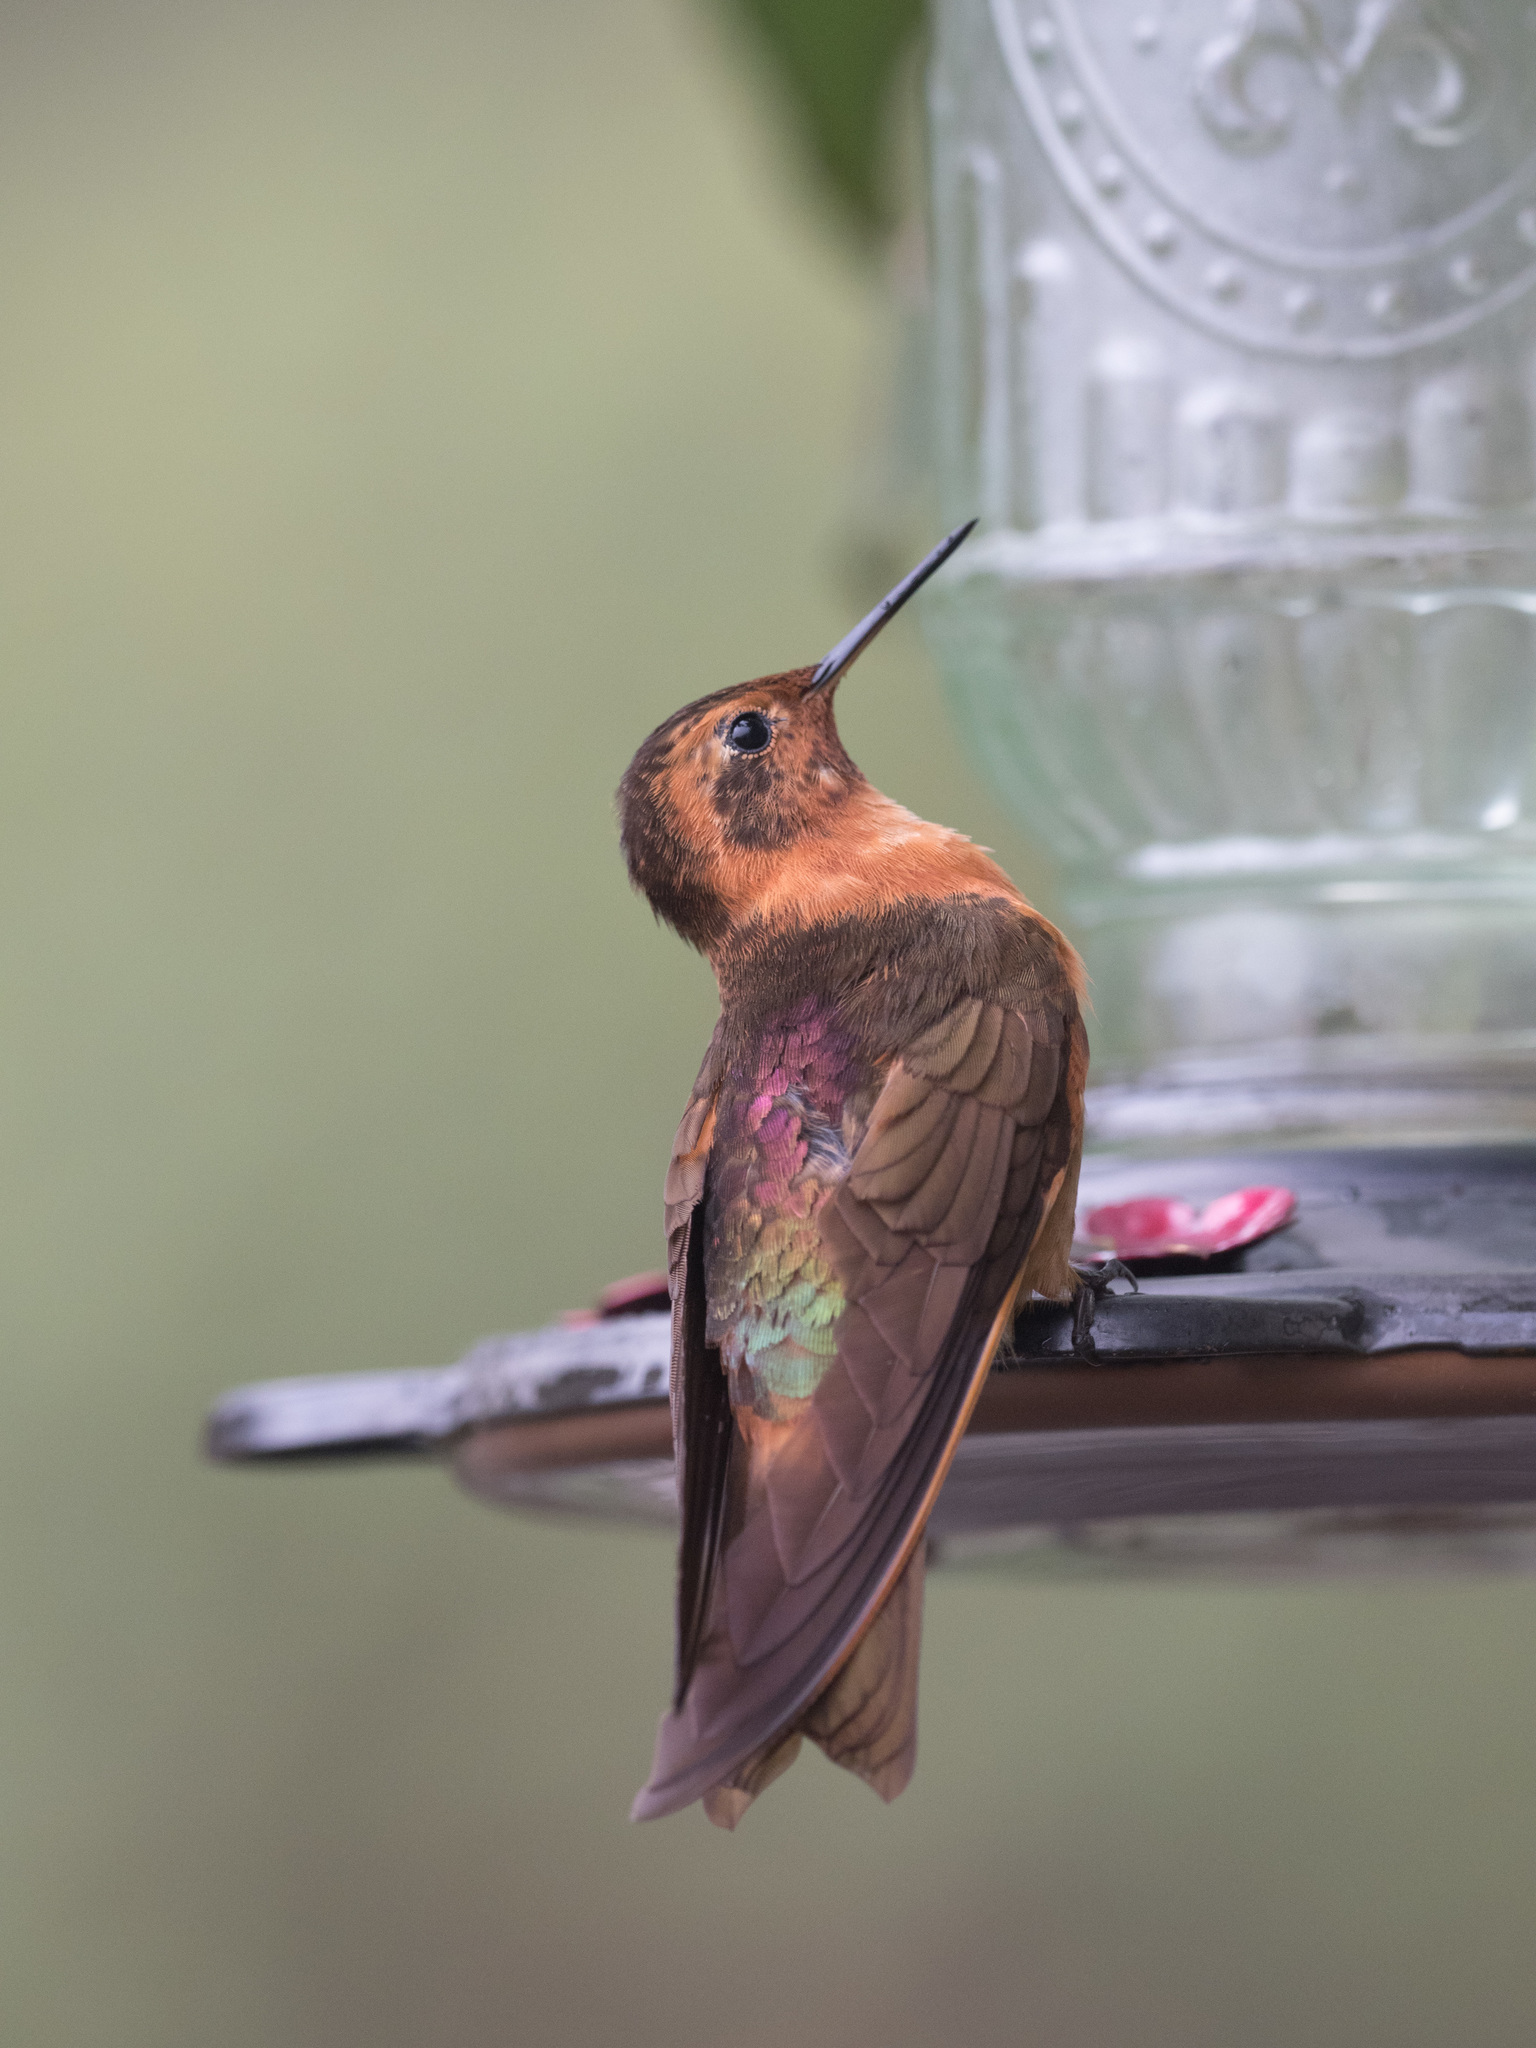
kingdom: Animalia
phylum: Chordata
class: Aves
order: Apodiformes
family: Trochilidae
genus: Aglaeactis
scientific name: Aglaeactis cupripennis
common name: Shining sunbeam
